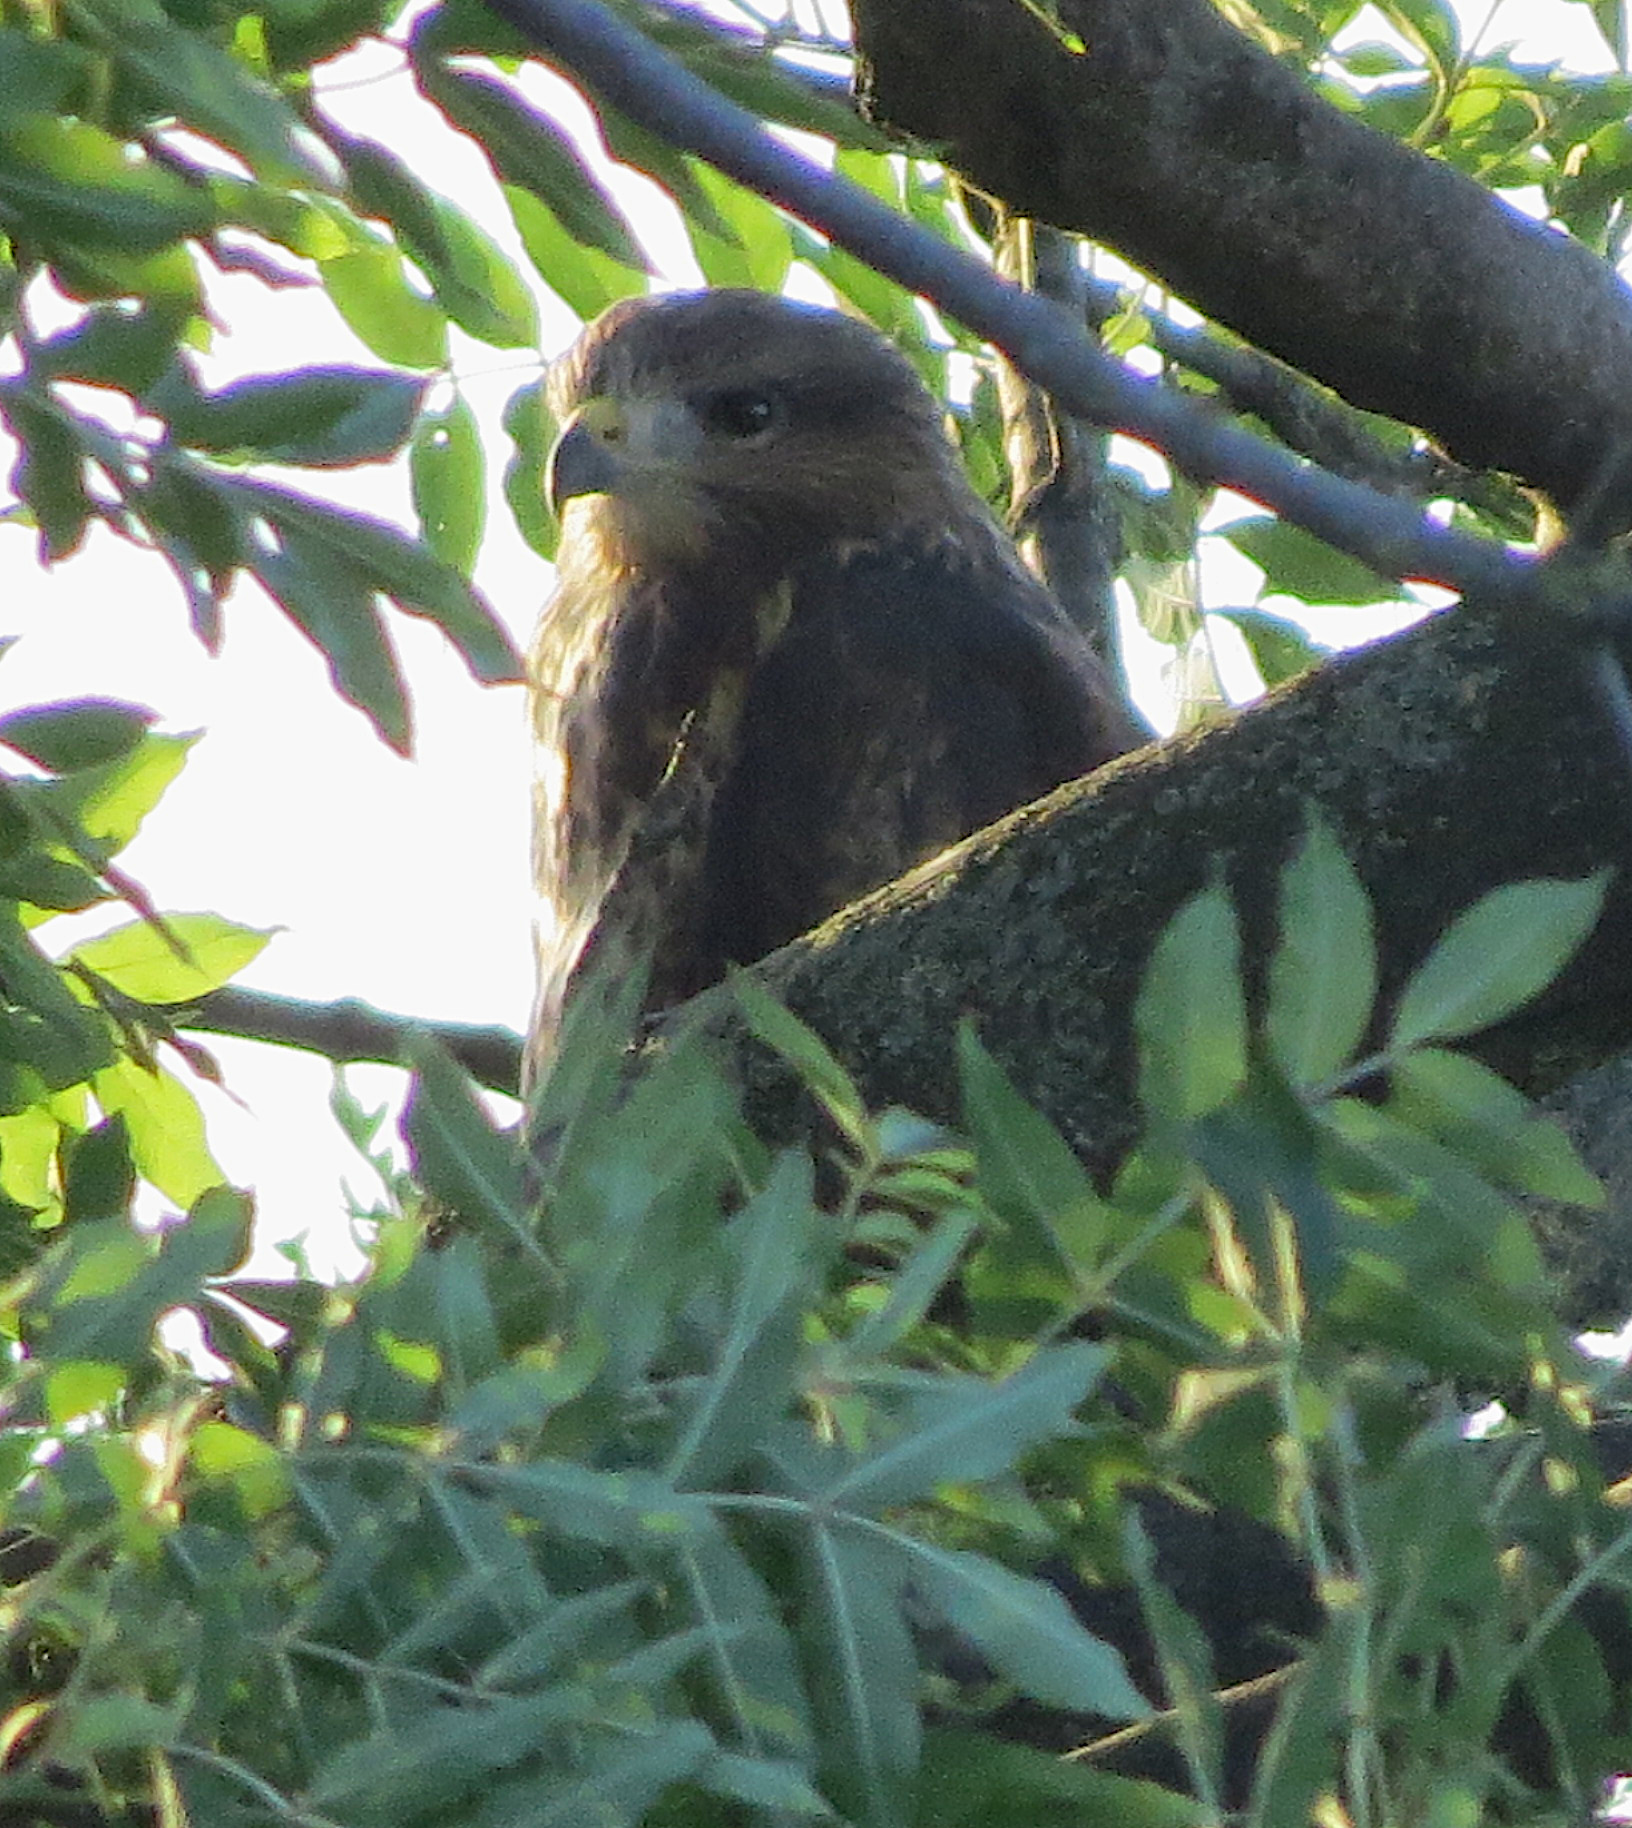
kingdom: Animalia
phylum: Chordata
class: Aves
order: Accipitriformes
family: Accipitridae
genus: Buteo
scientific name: Buteo buteo
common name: Common buzzard
